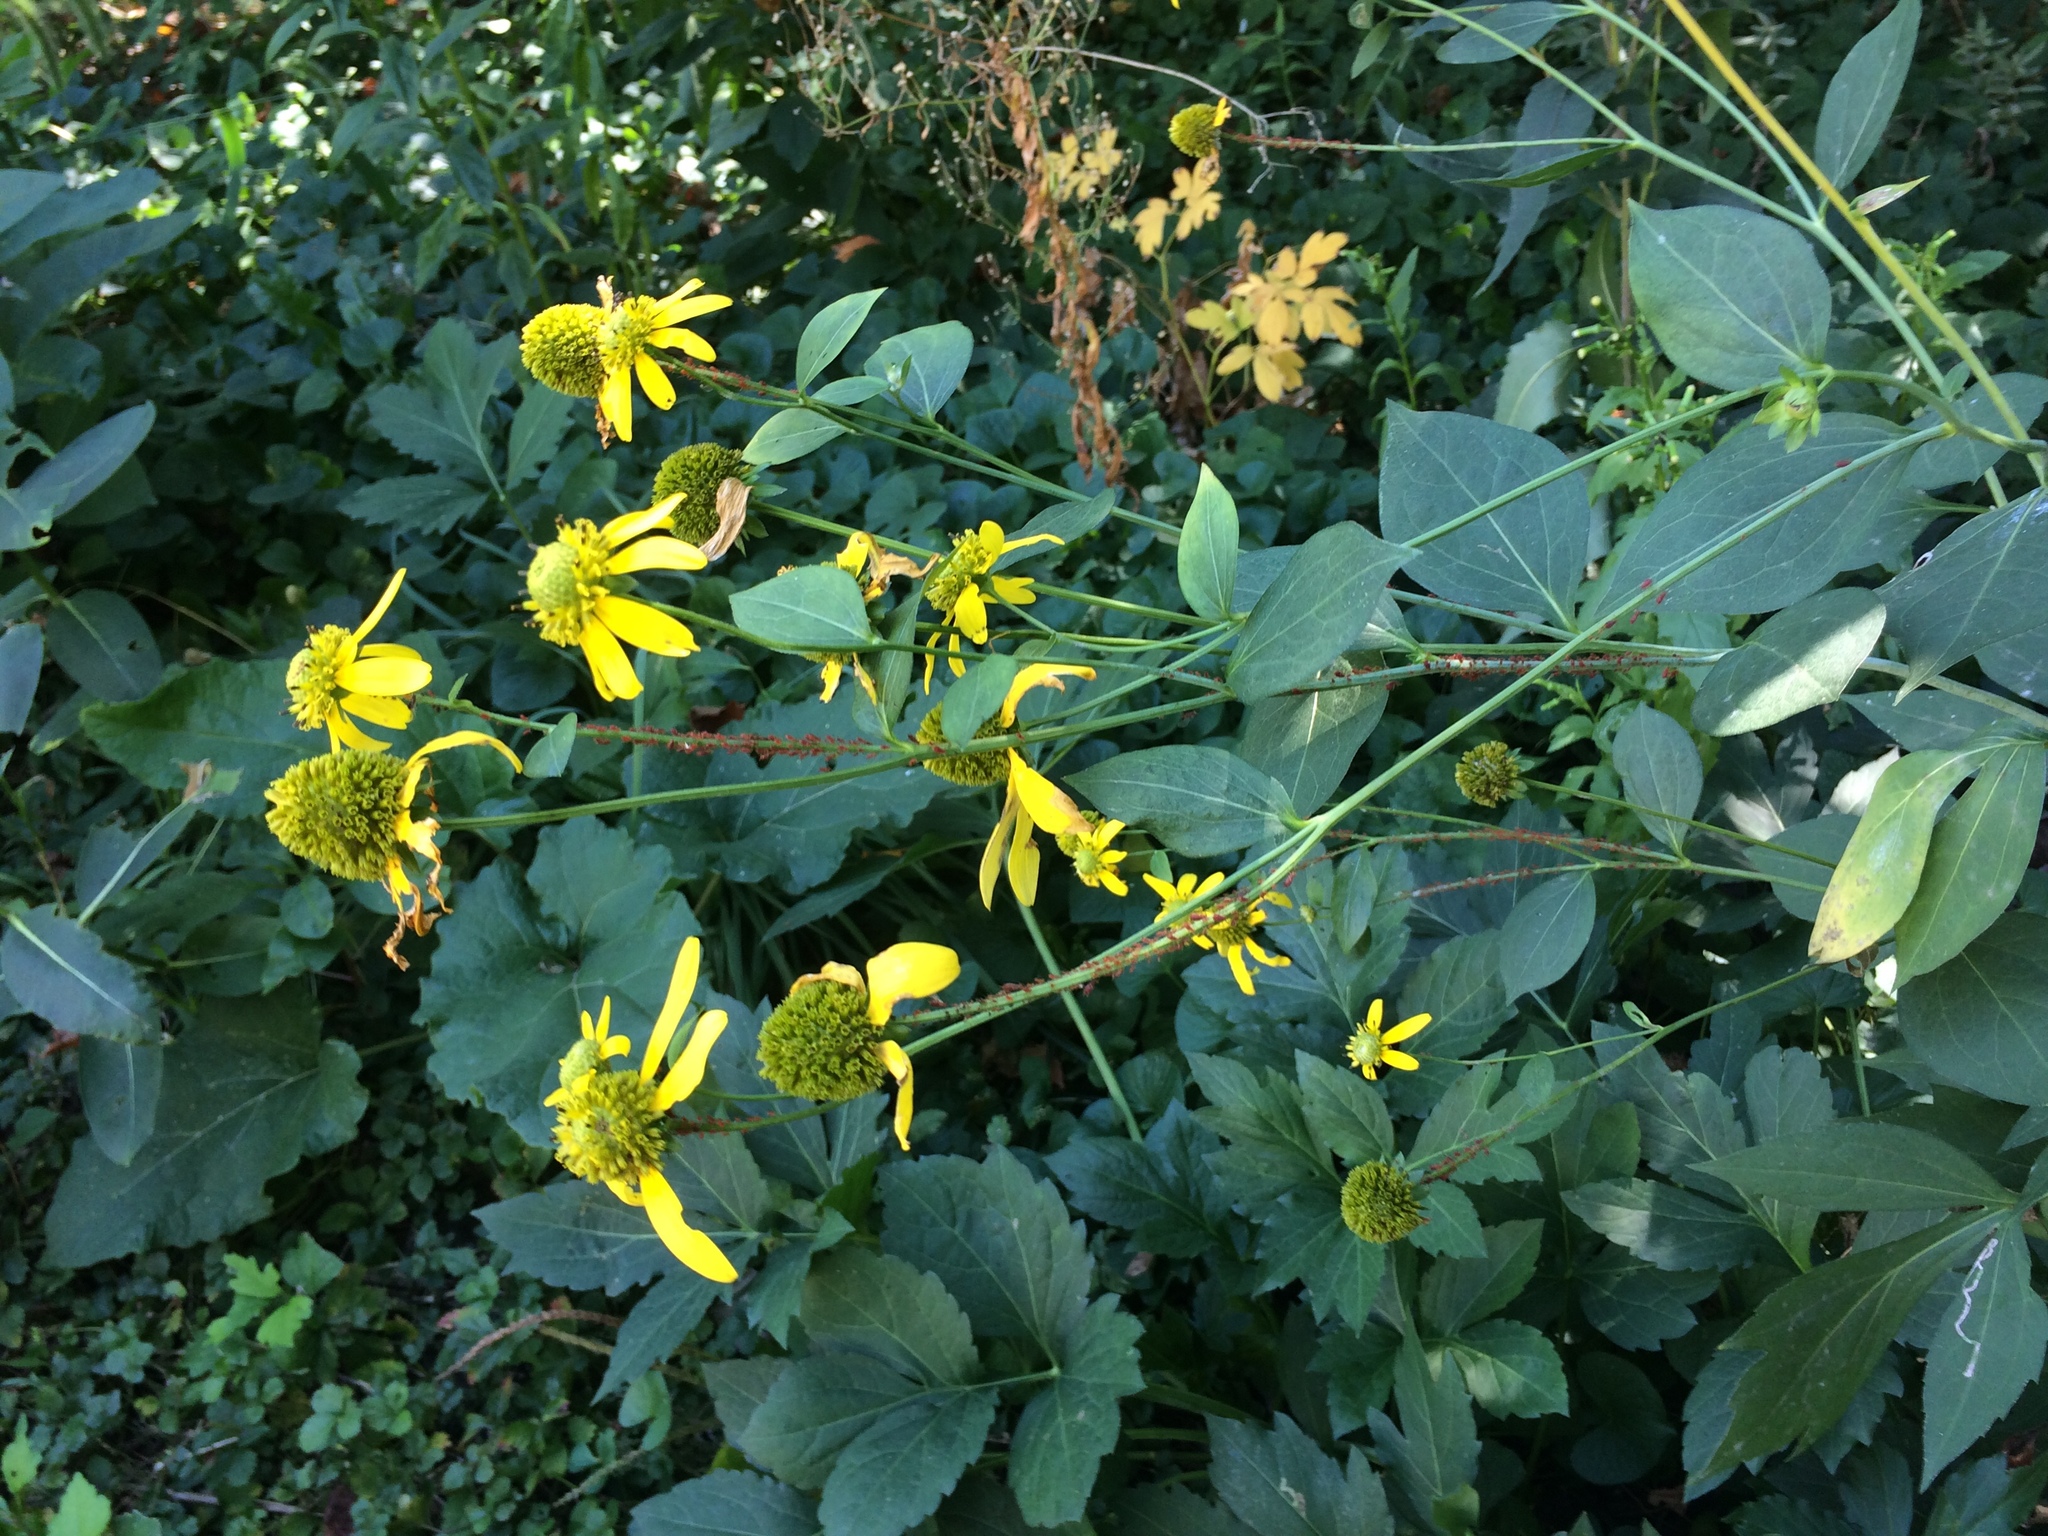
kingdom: Plantae
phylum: Tracheophyta
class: Magnoliopsida
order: Asterales
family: Asteraceae
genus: Rudbeckia
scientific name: Rudbeckia laciniata
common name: Coneflower
